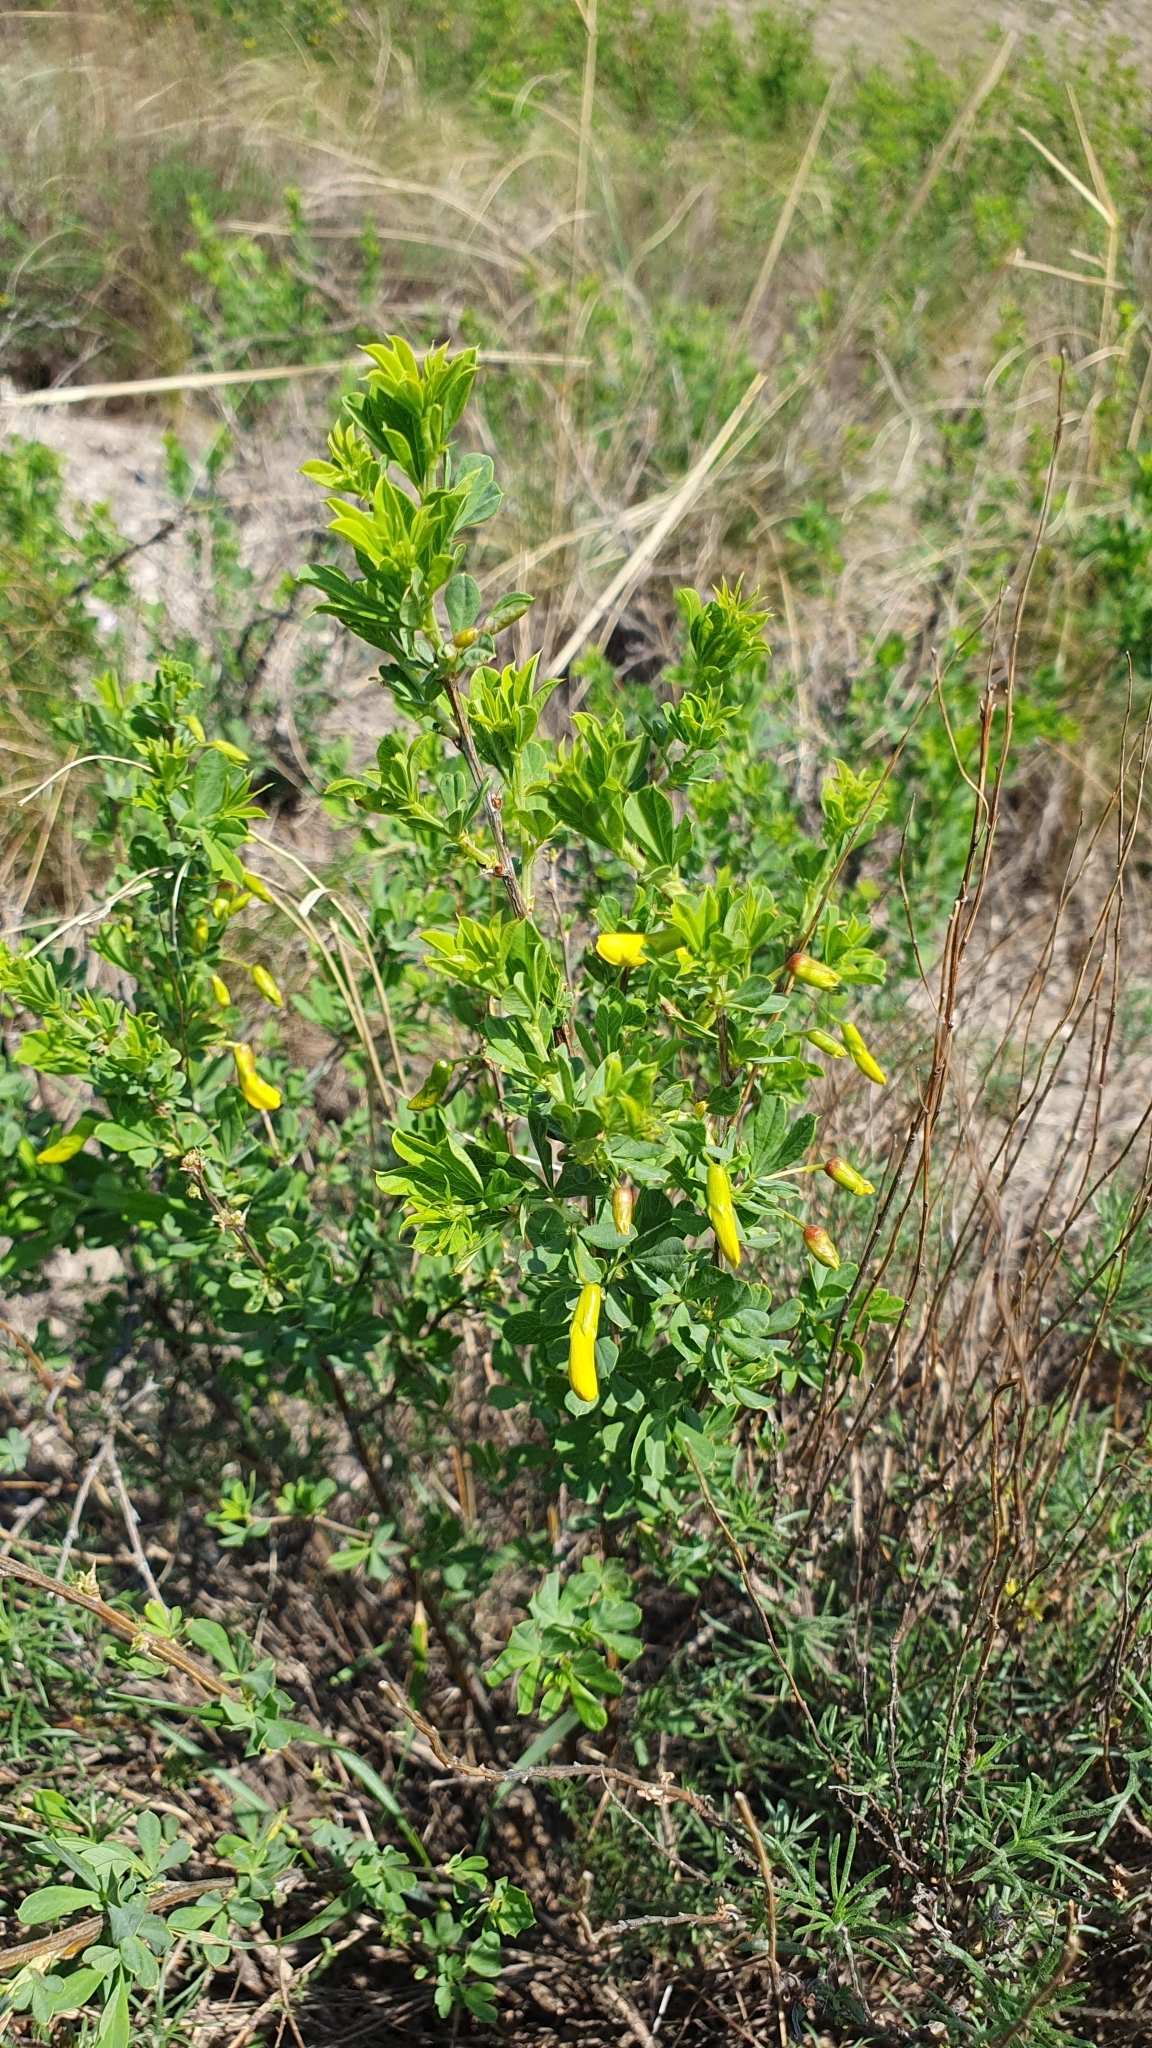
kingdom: Plantae
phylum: Tracheophyta
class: Magnoliopsida
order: Fabales
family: Fabaceae
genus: Caragana
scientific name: Caragana frutex
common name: Russian peashrub
